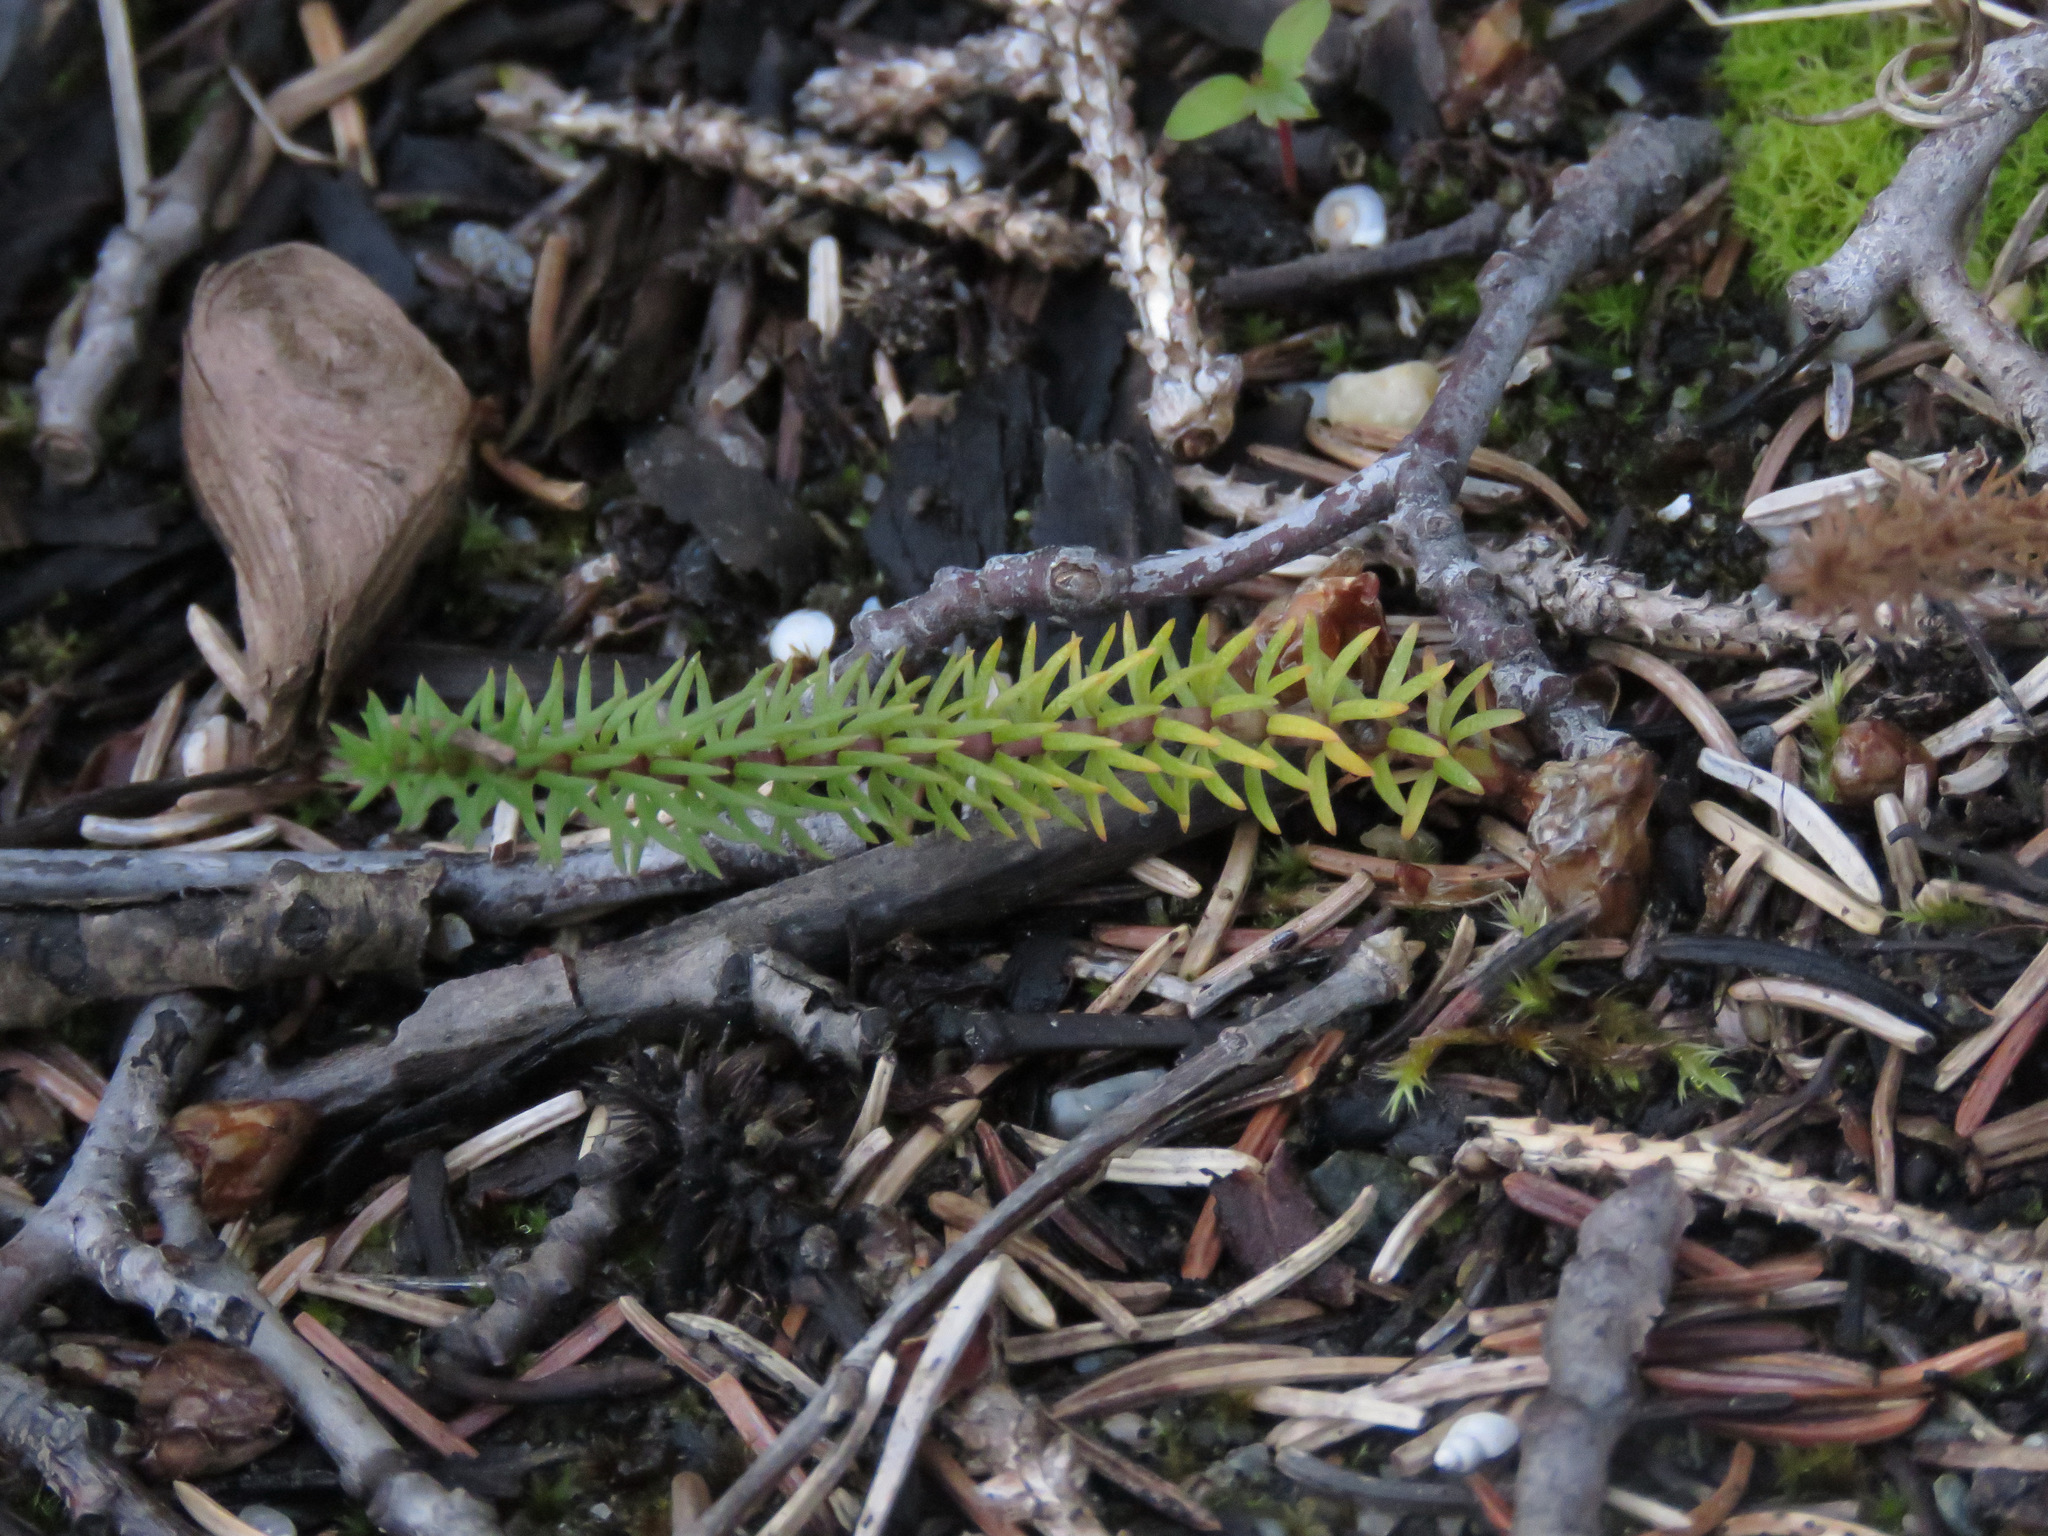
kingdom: Plantae
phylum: Tracheophyta
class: Magnoliopsida
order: Lamiales
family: Plantaginaceae
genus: Hippuris
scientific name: Hippuris vulgaris
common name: Mare's-tail
